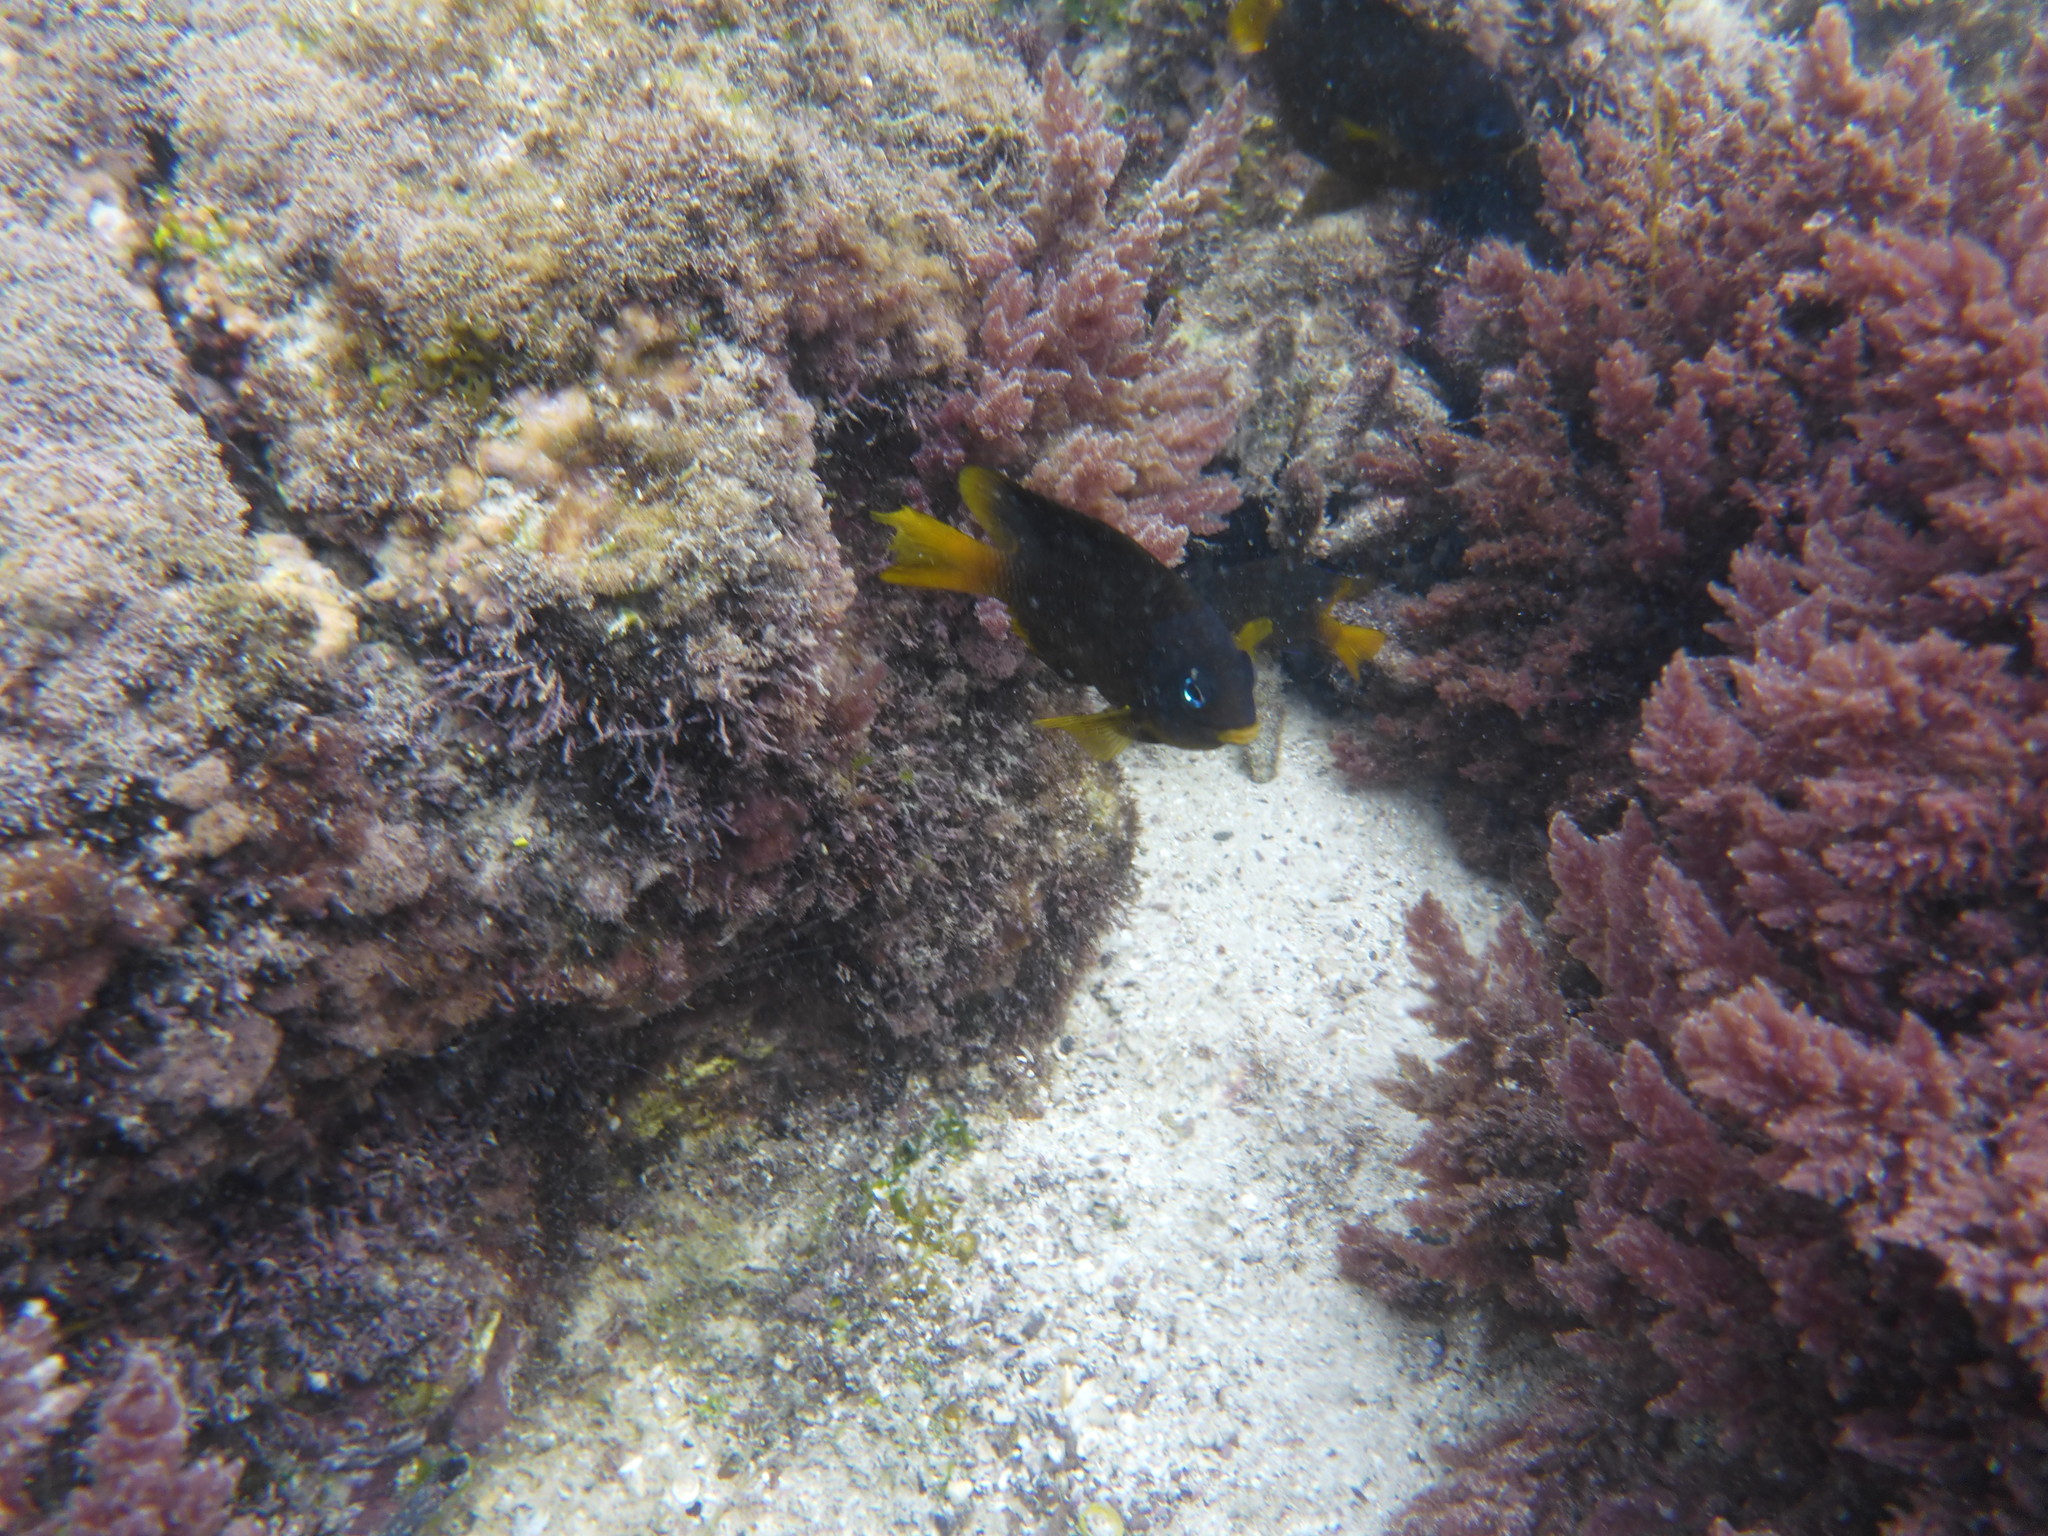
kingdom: Animalia
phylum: Chordata
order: Perciformes
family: Pomacentridae
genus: Stegastes
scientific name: Stegastes arcifrons
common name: Galapagos gregory
